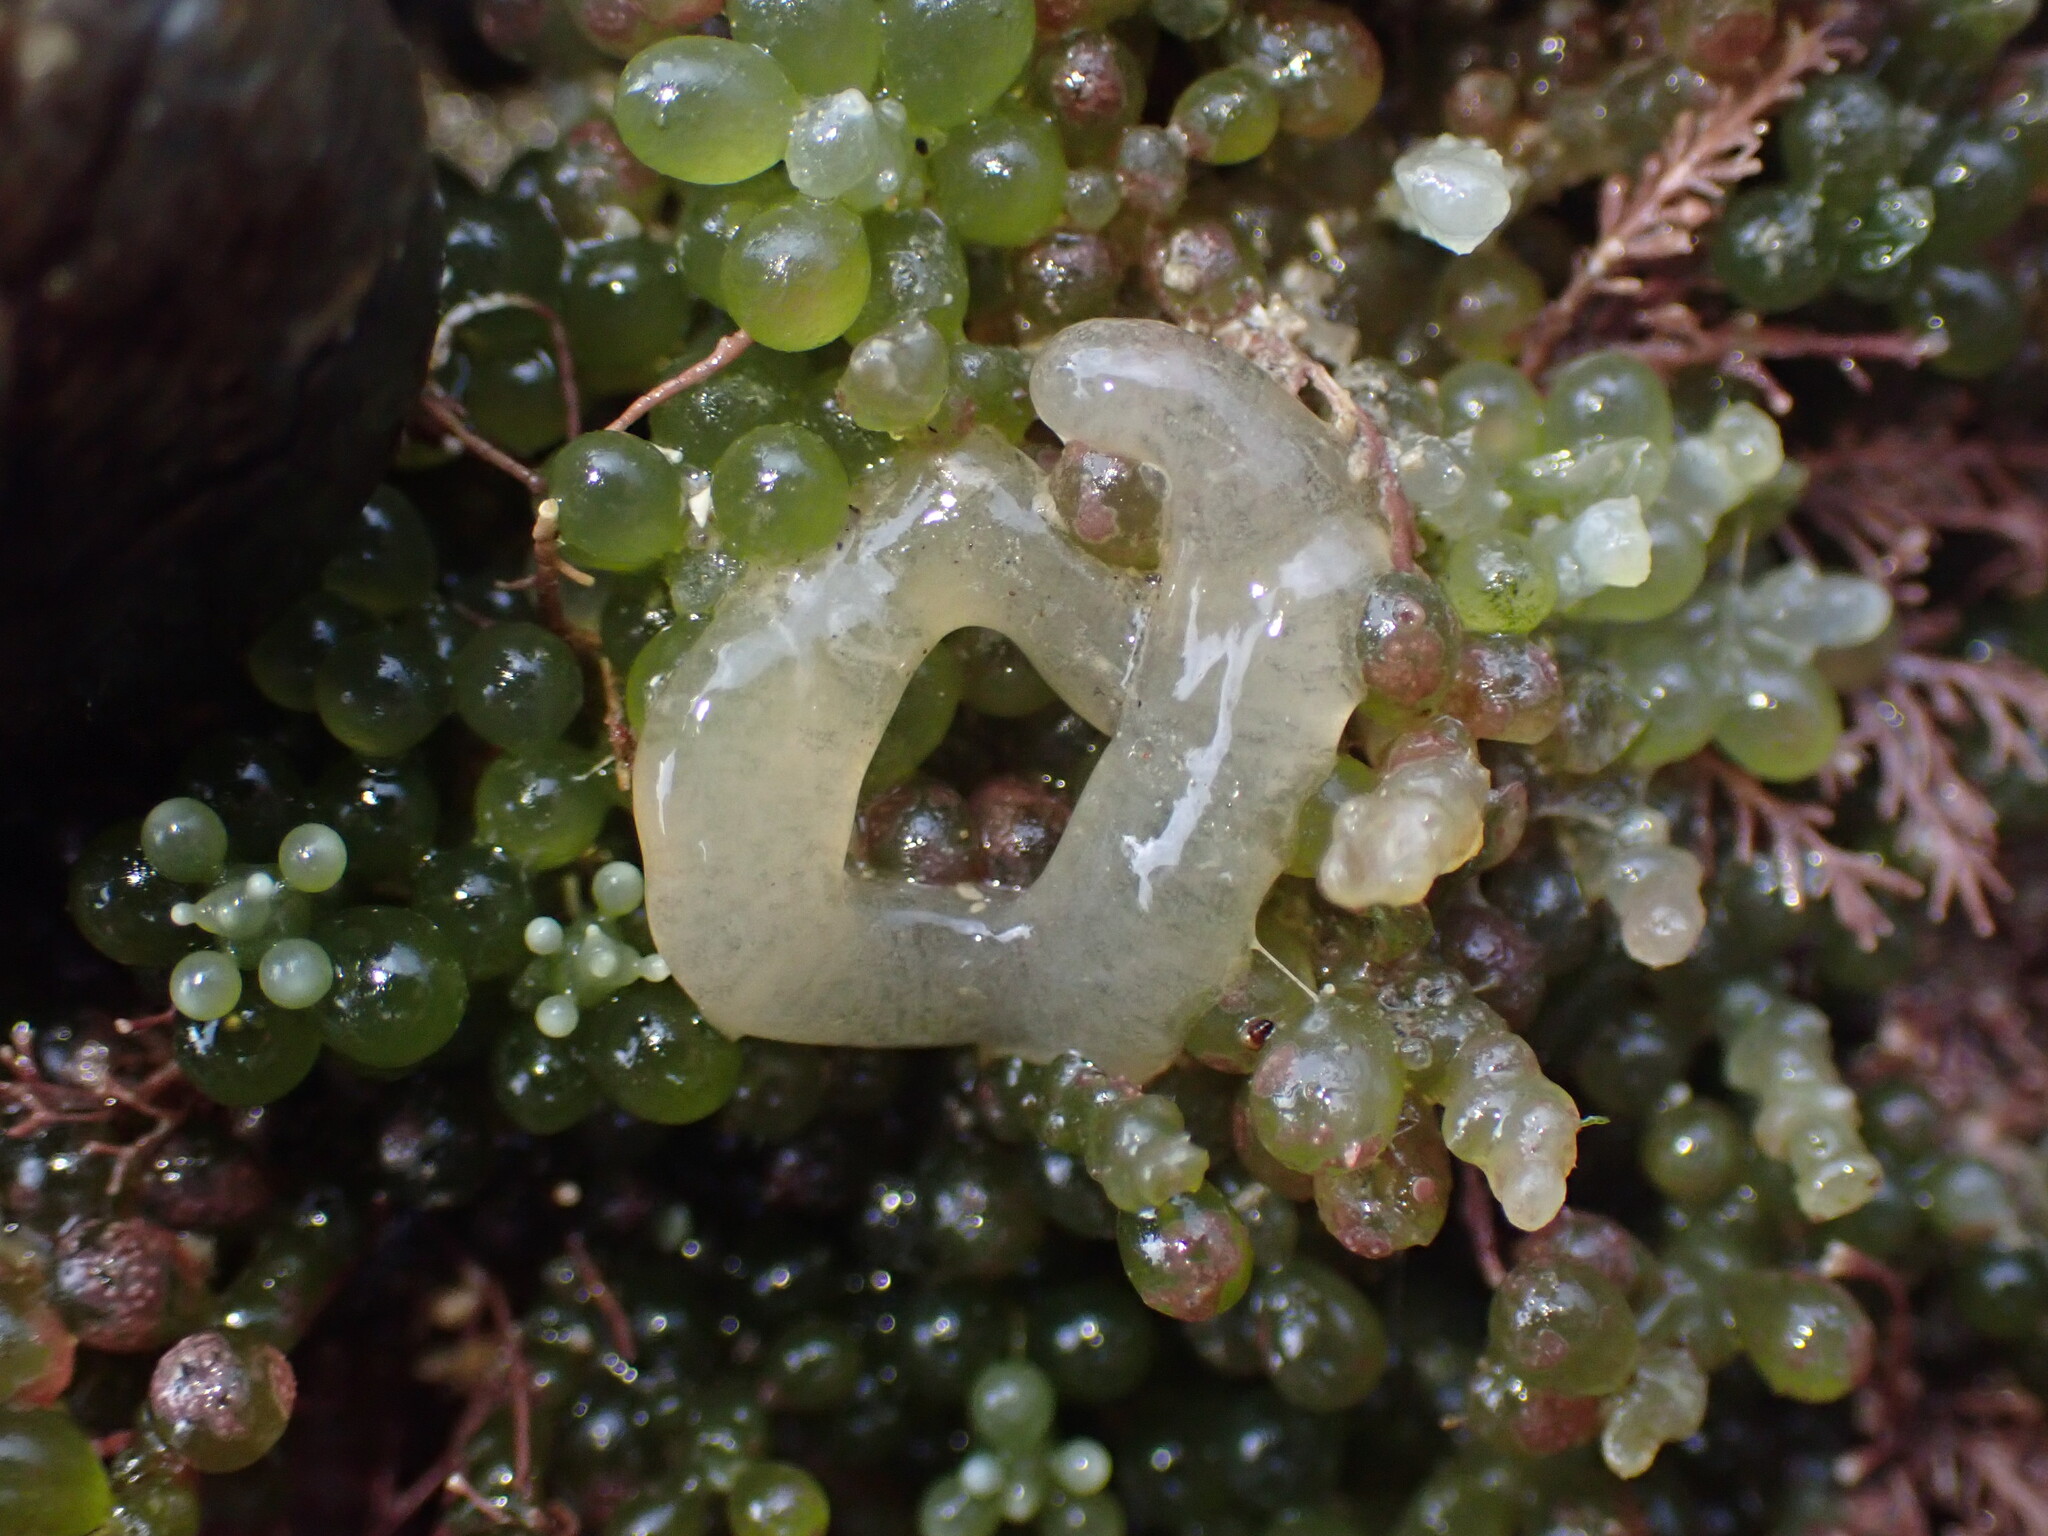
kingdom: Animalia
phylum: Mollusca
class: Gastropoda
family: Limapontiidae
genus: Sacoproteus
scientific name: Sacoproteus smaragdinus
